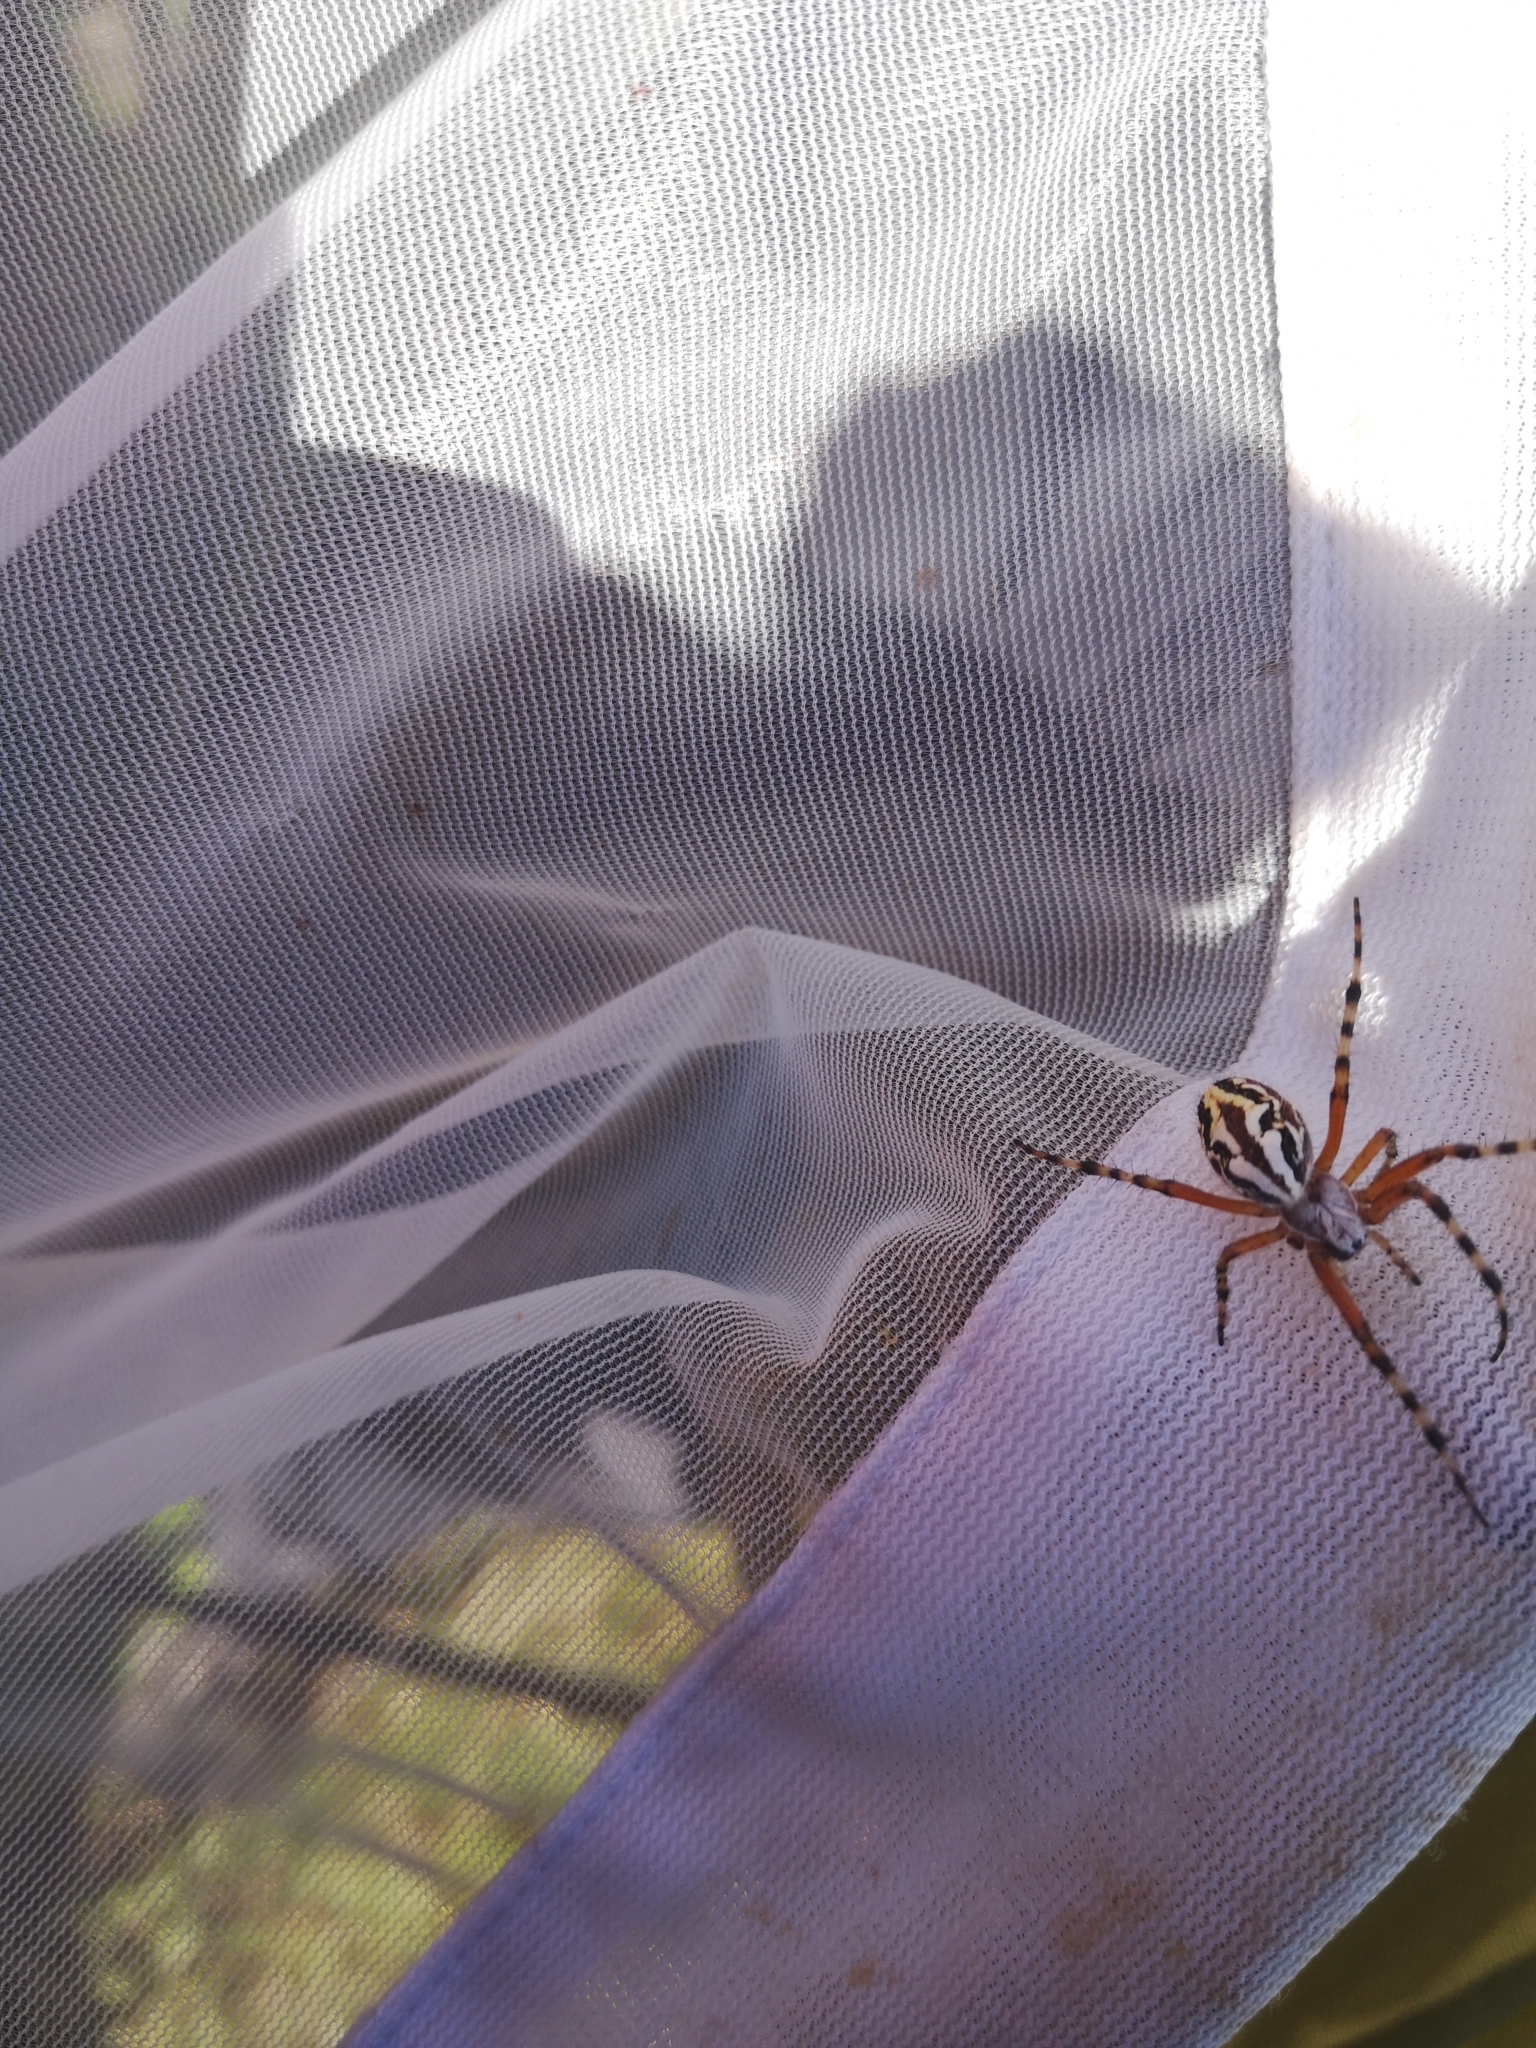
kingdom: Animalia
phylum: Arthropoda
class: Arachnida
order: Araneae
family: Araneidae
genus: Aculepeira
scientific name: Aculepeira armida
